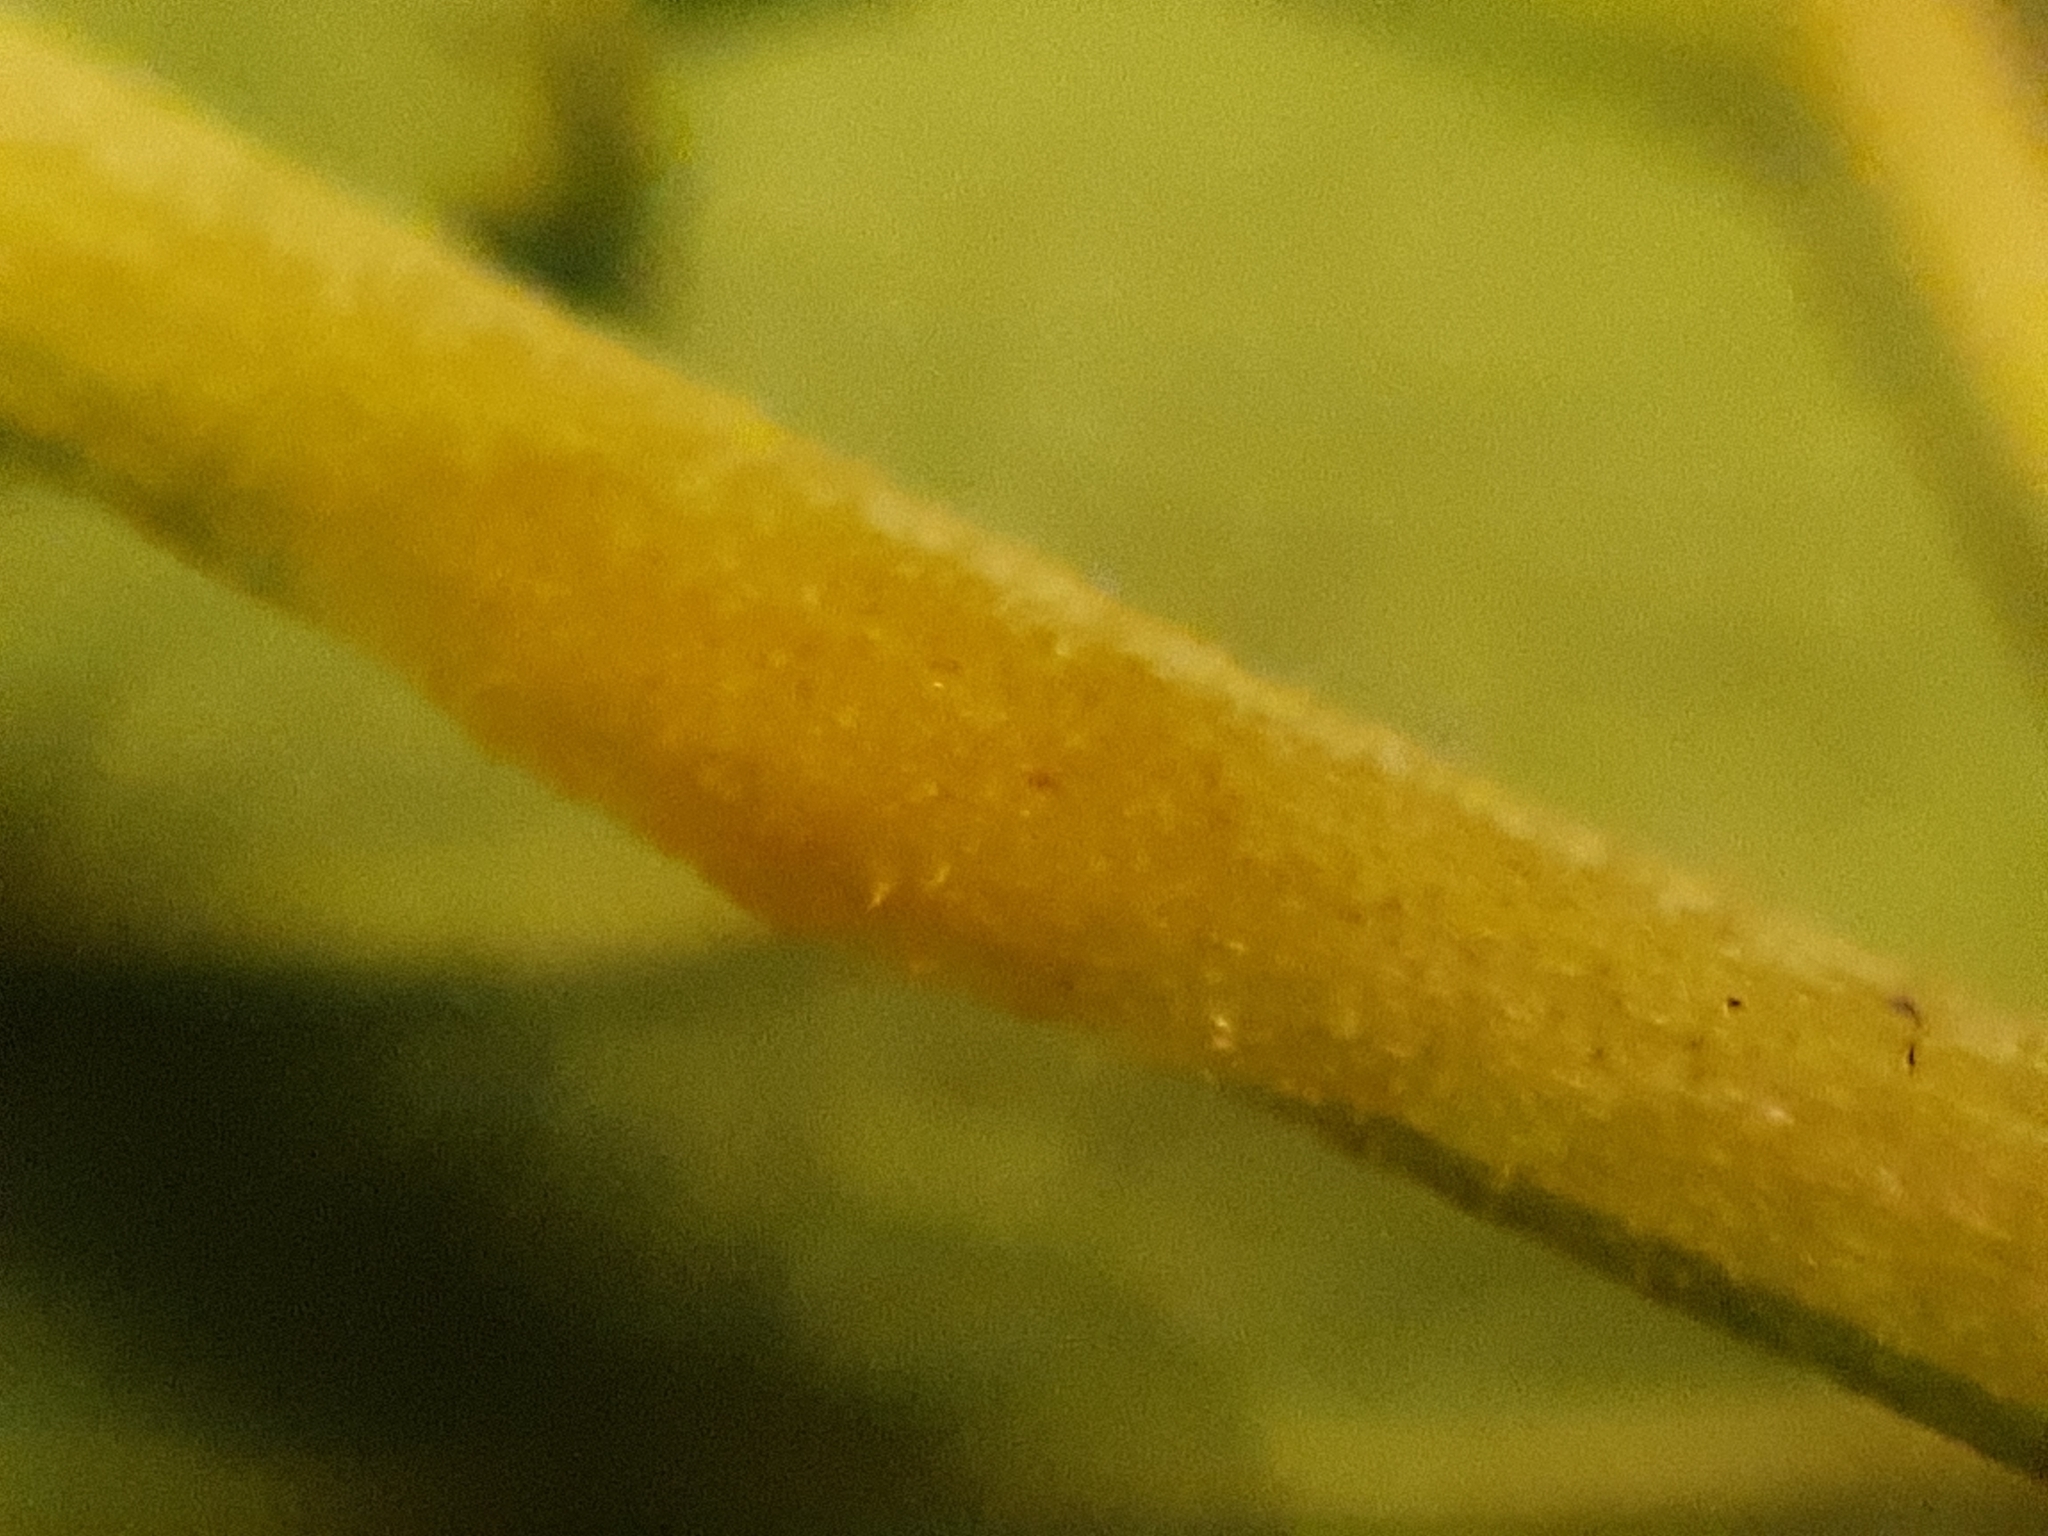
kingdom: Fungi
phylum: Ascomycota
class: Taphrinomycetes
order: Taphrinales
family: Taphrinaceae
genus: Protomyces
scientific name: Protomyces macrosporus
